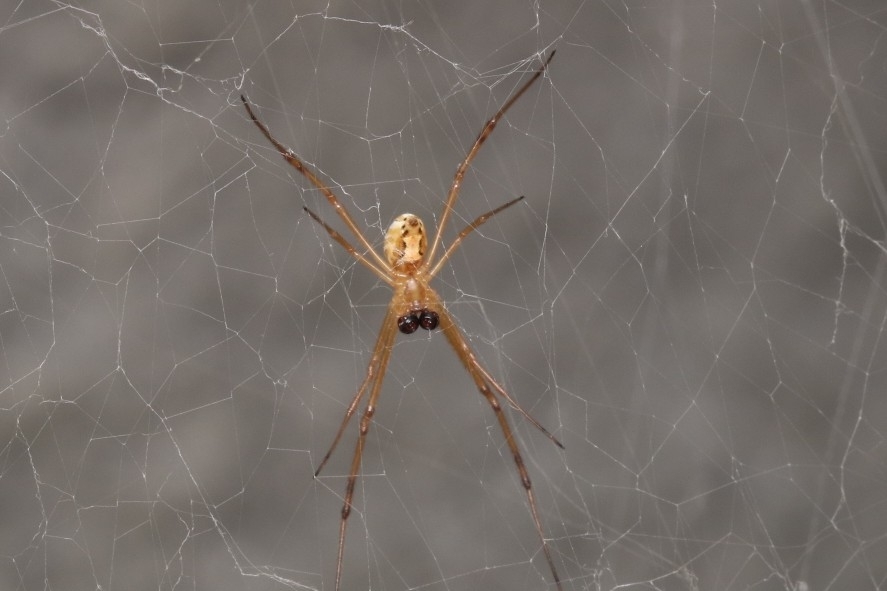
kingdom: Animalia
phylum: Arthropoda
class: Arachnida
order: Araneae
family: Theridiidae
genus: Latrodectus
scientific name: Latrodectus hesperus
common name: Western black widow
